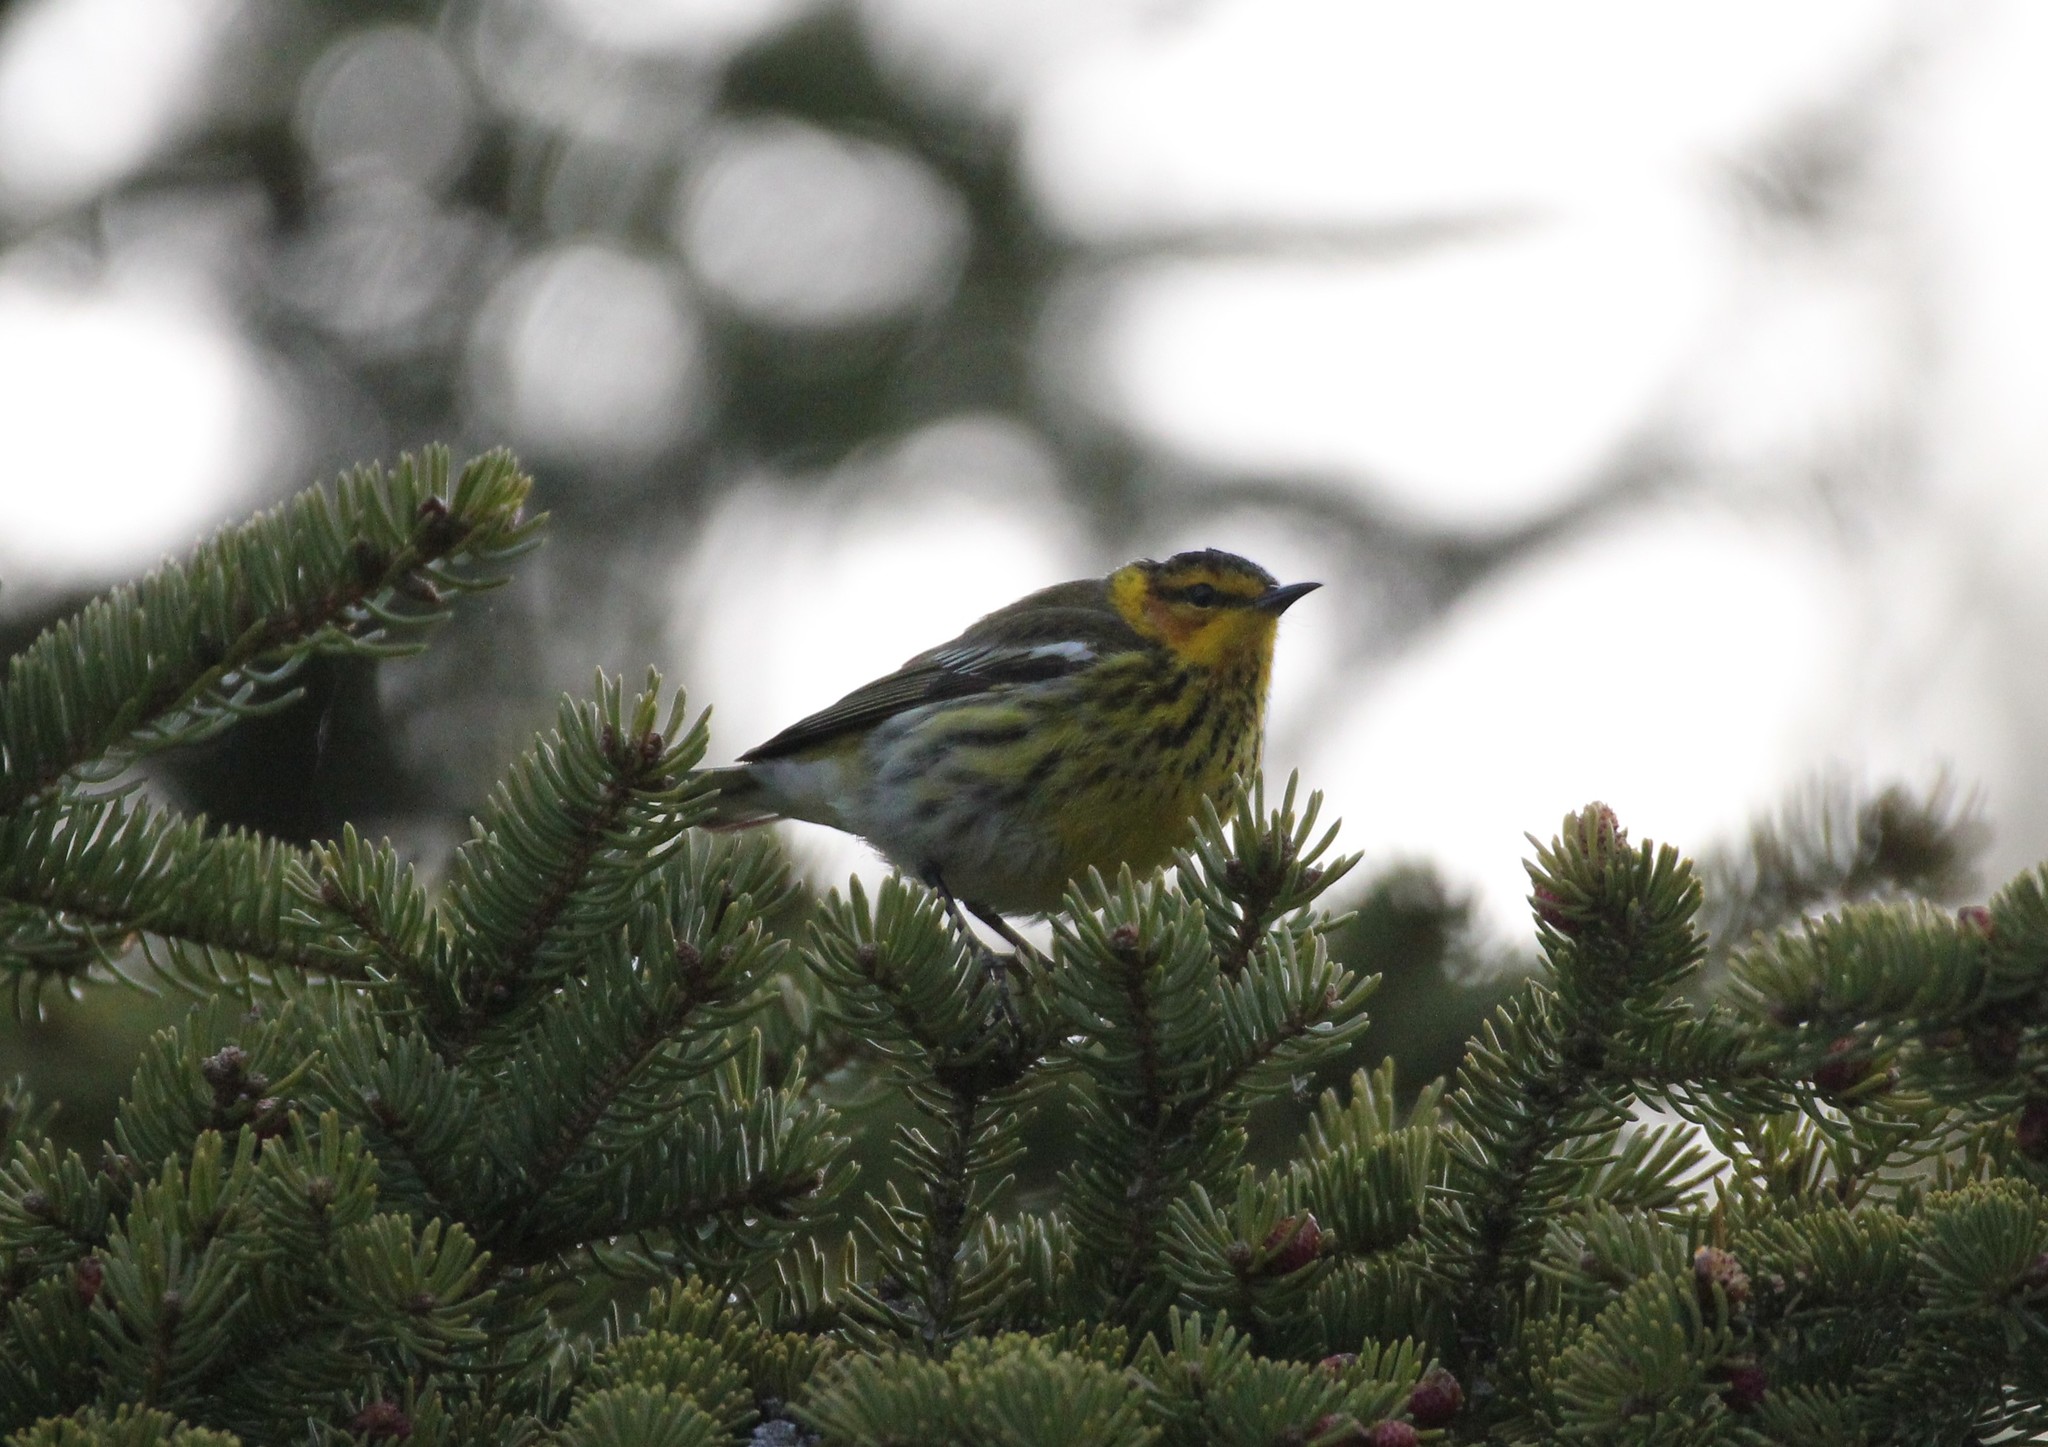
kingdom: Animalia
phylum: Chordata
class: Aves
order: Passeriformes
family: Parulidae
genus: Setophaga
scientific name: Setophaga tigrina
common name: Cape may warbler
